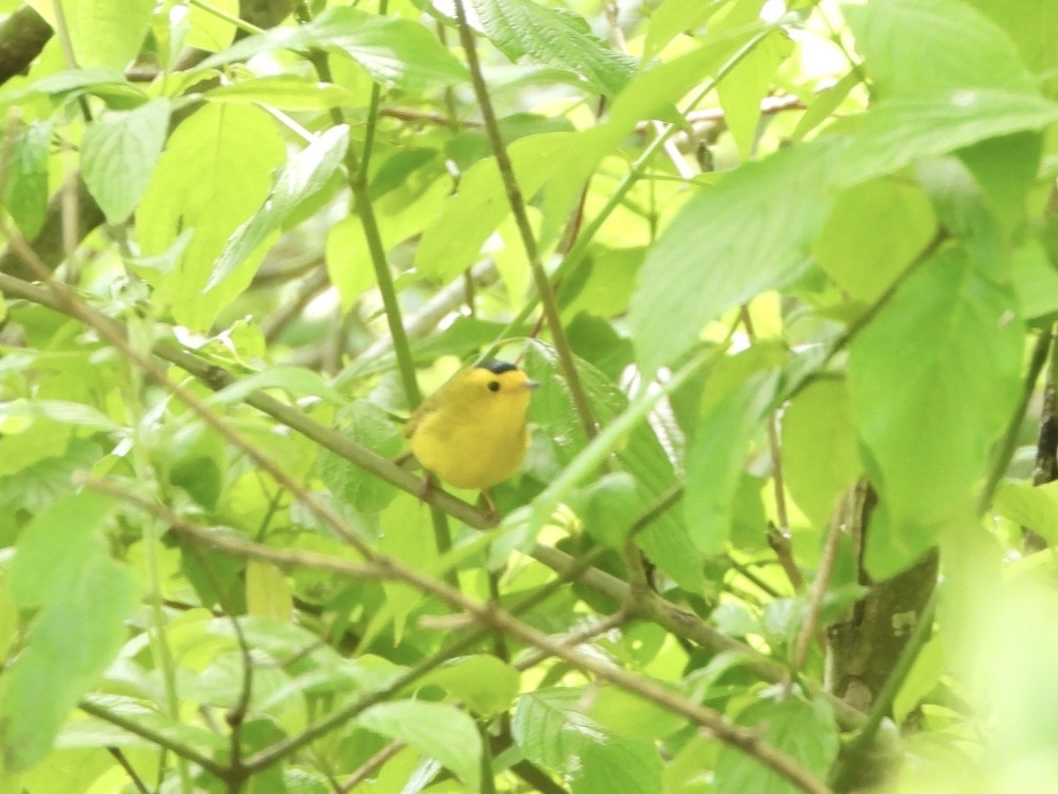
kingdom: Animalia
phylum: Chordata
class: Aves
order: Passeriformes
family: Parulidae
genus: Cardellina
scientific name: Cardellina pusilla
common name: Wilson's warbler
